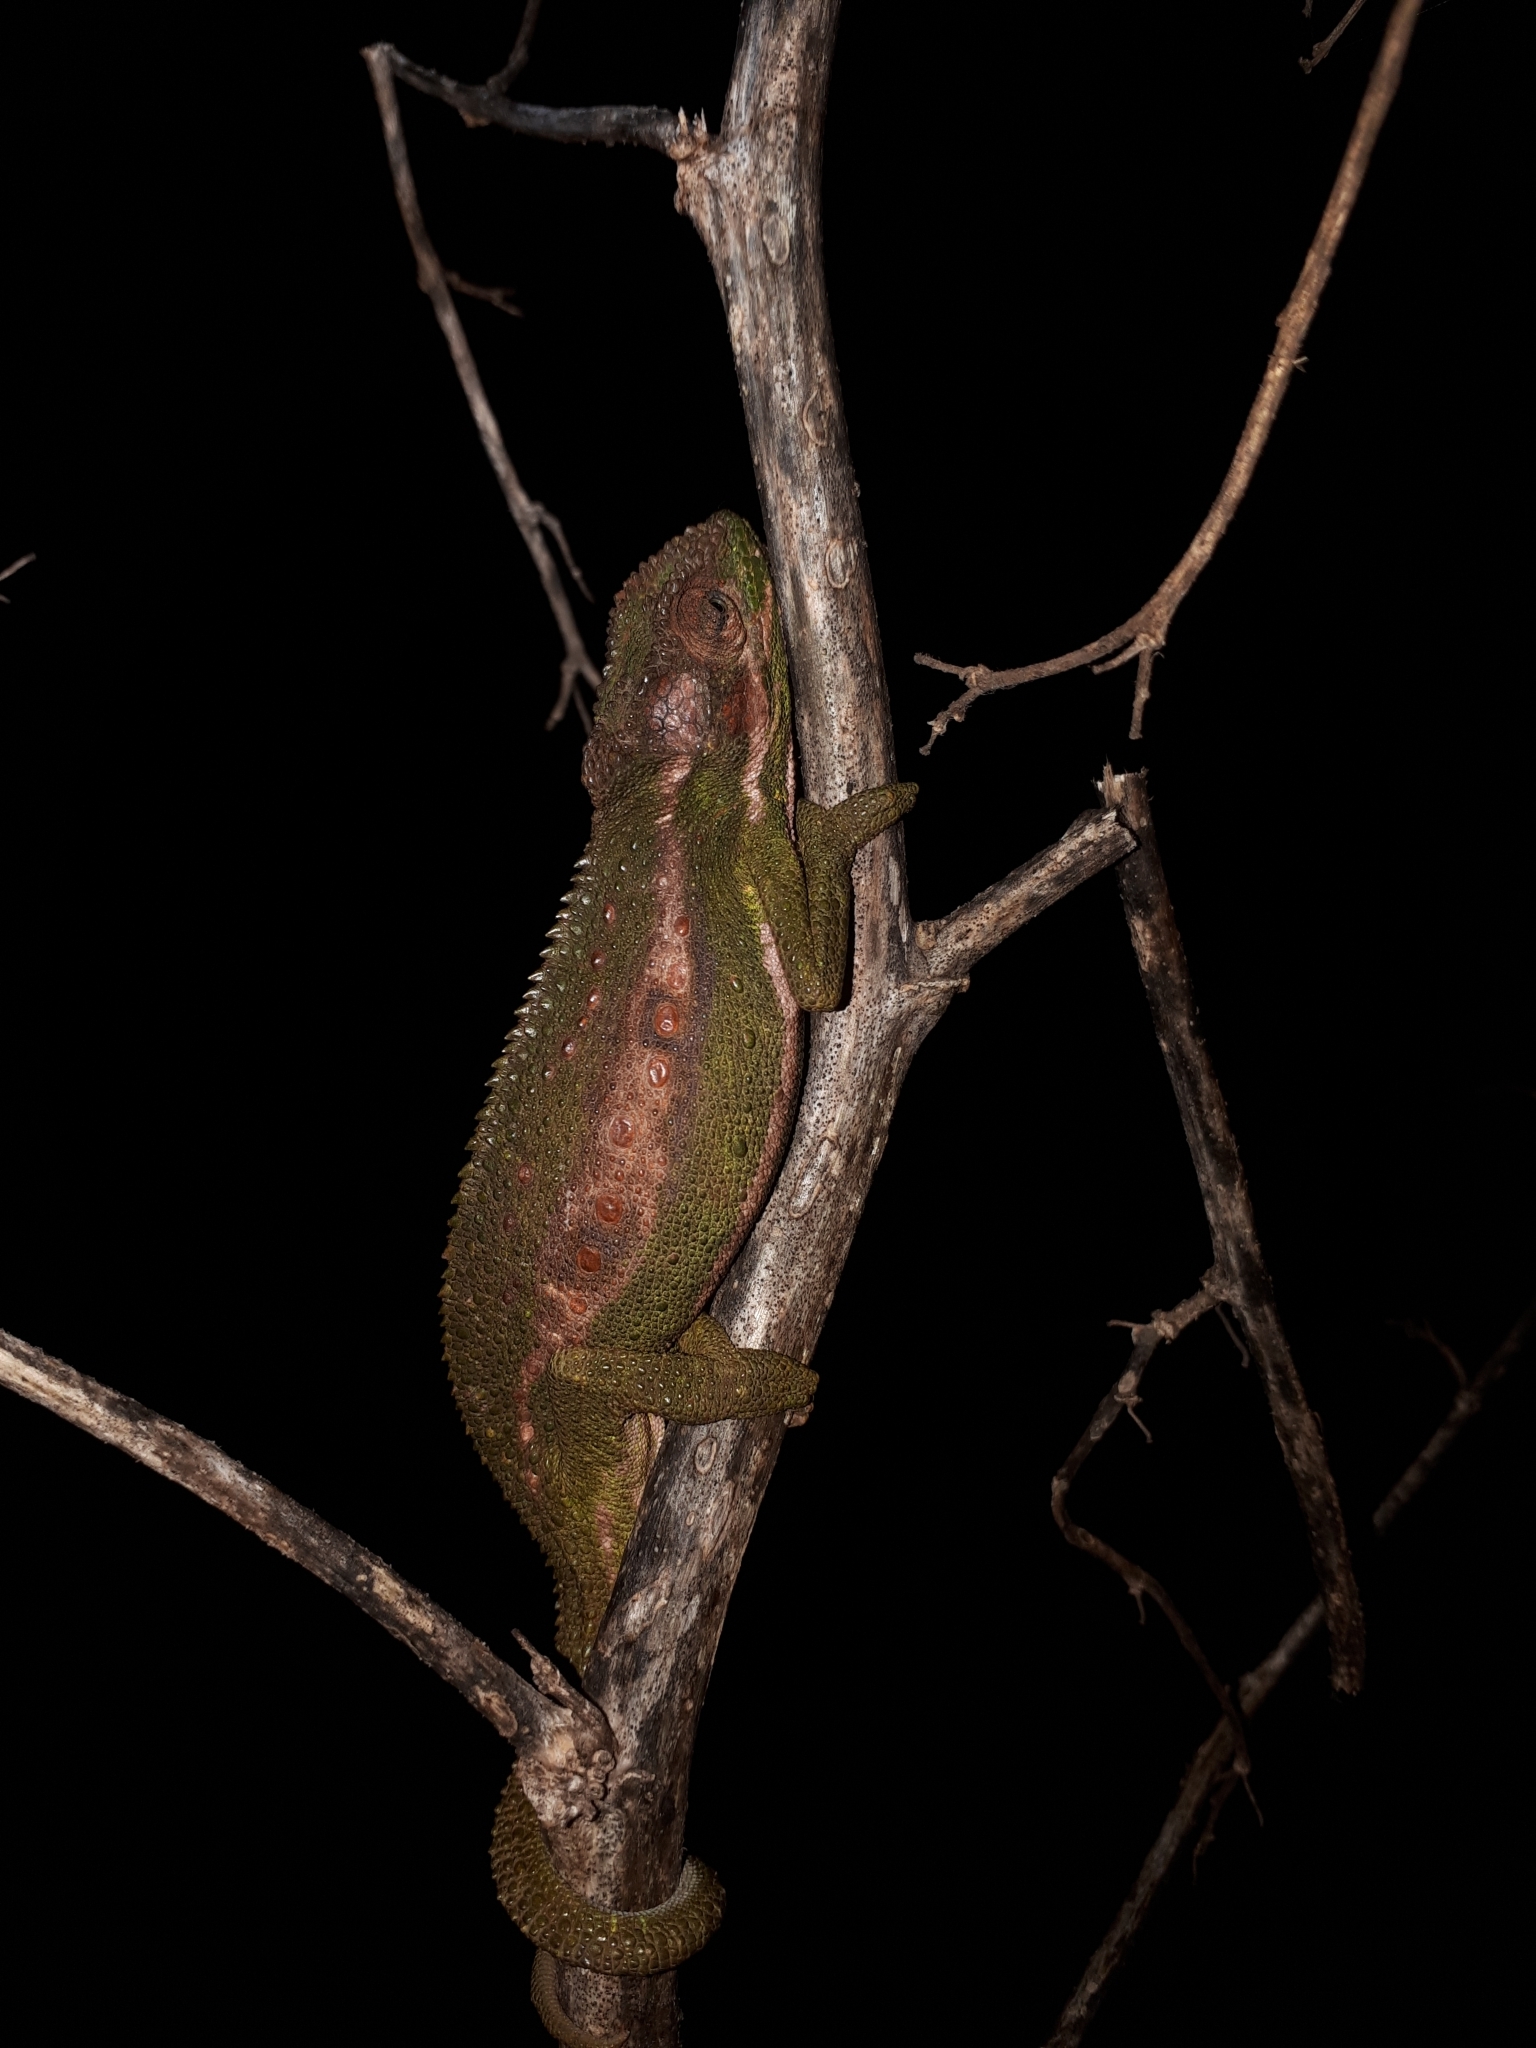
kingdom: Animalia
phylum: Chordata
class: Squamata
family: Chamaeleonidae
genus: Bradypodion
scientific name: Bradypodion pumilum
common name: Cape dwarf chameleon
